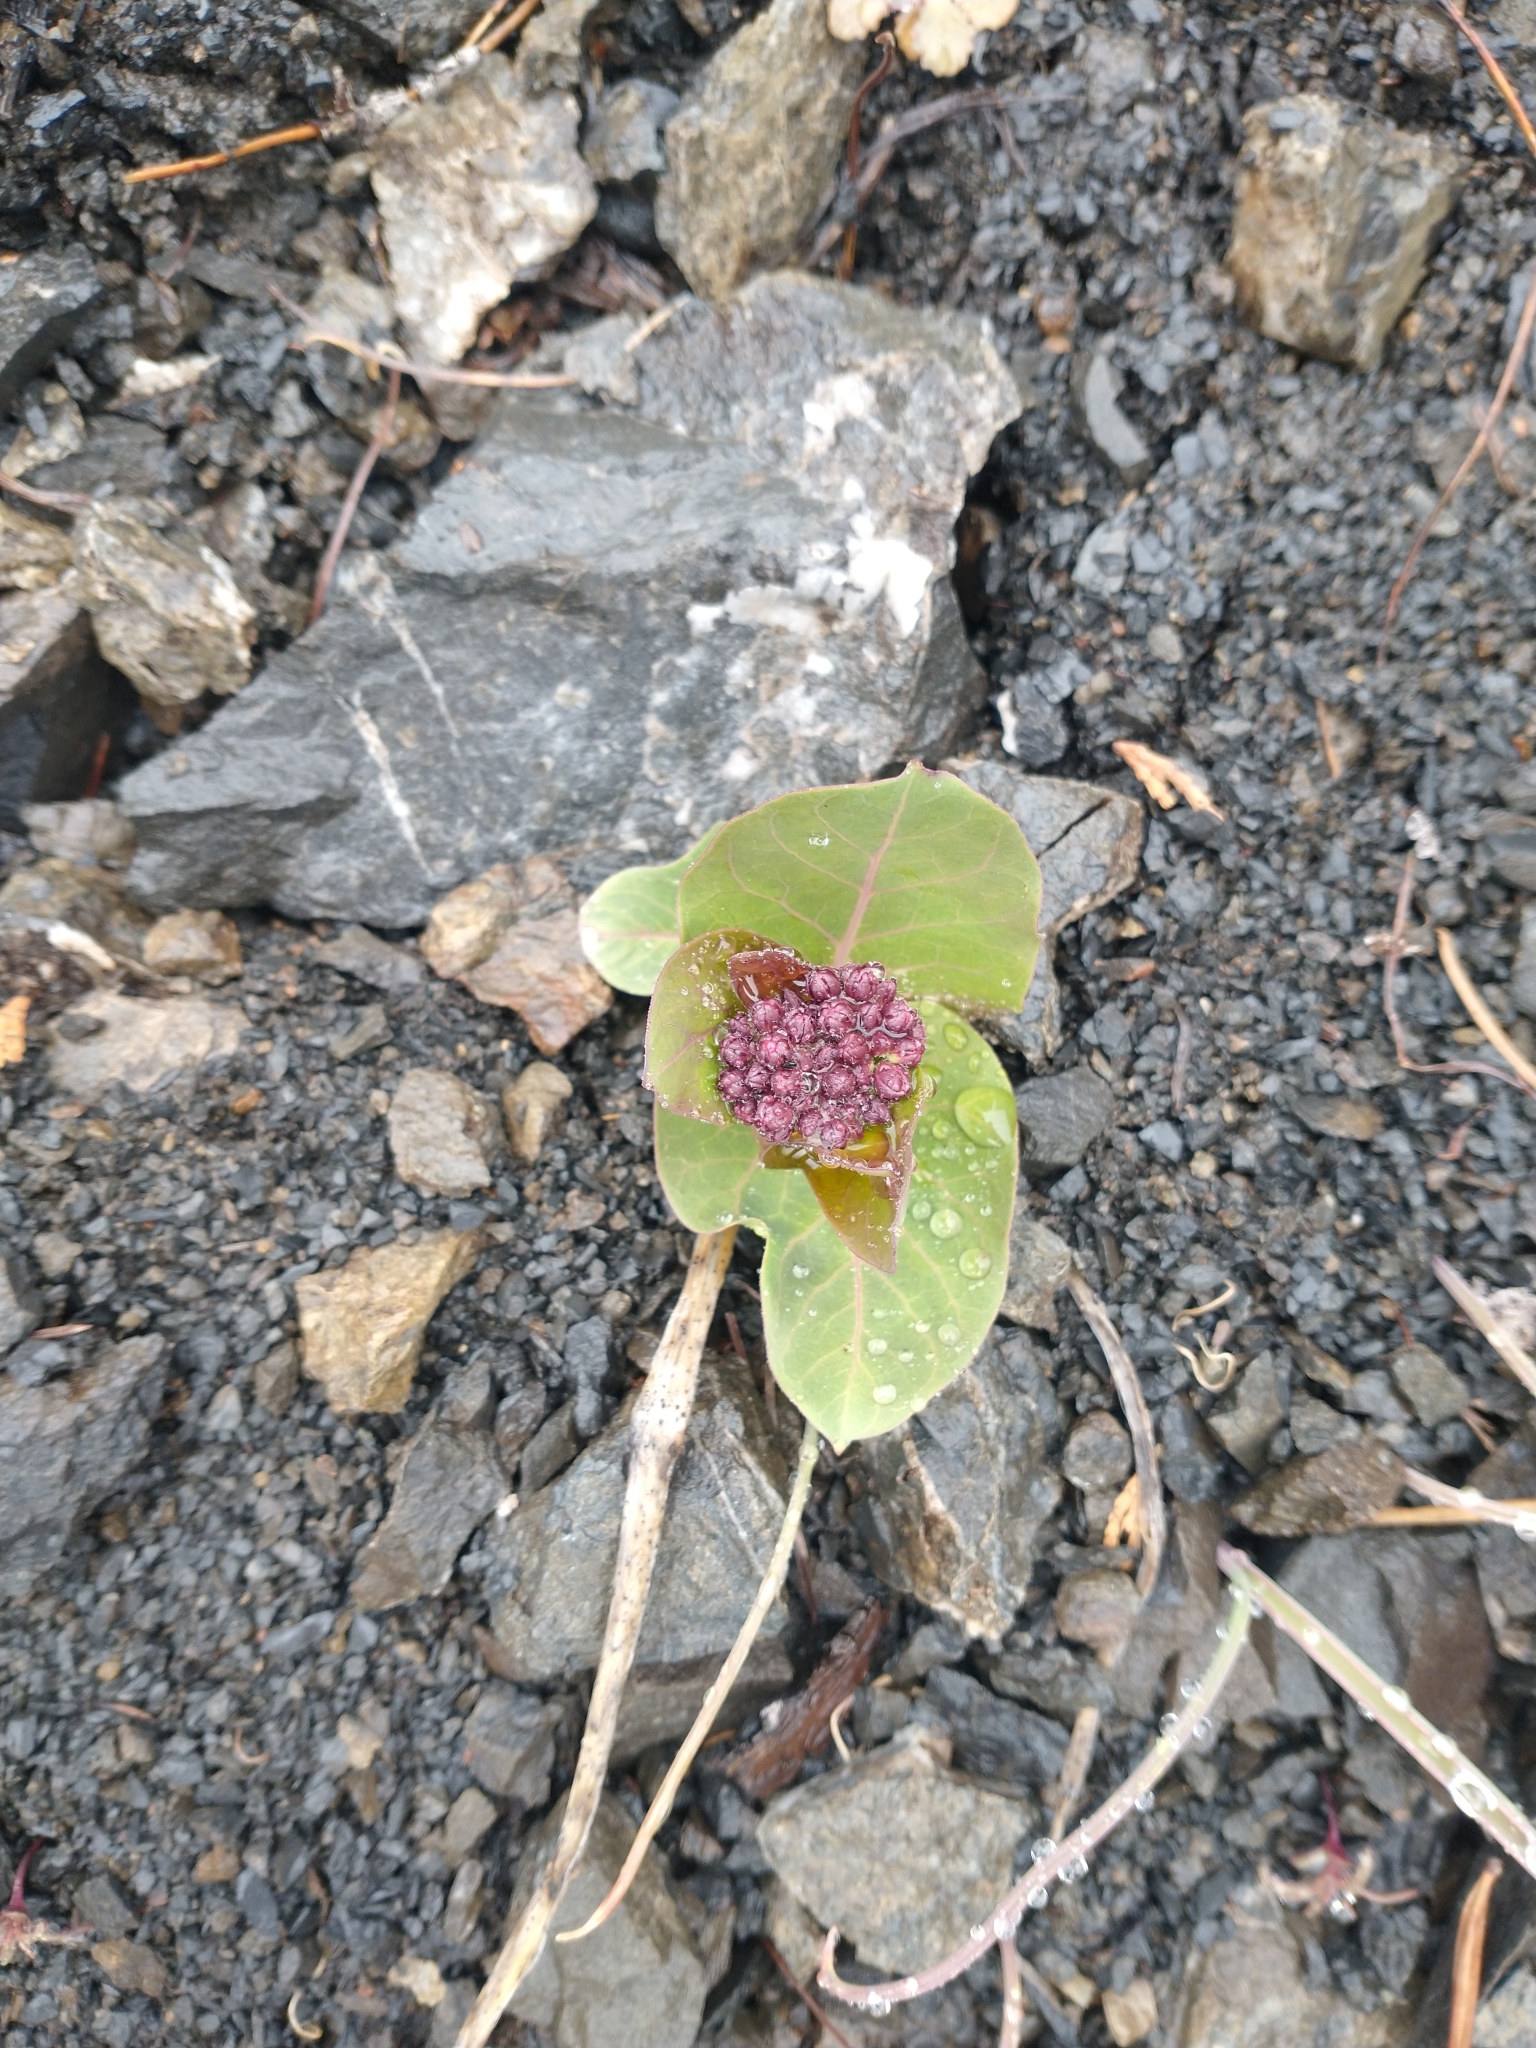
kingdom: Plantae
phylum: Tracheophyta
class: Magnoliopsida
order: Gentianales
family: Apocynaceae
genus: Asclepias
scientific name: Asclepias cordifolia
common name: Purple milkweed
